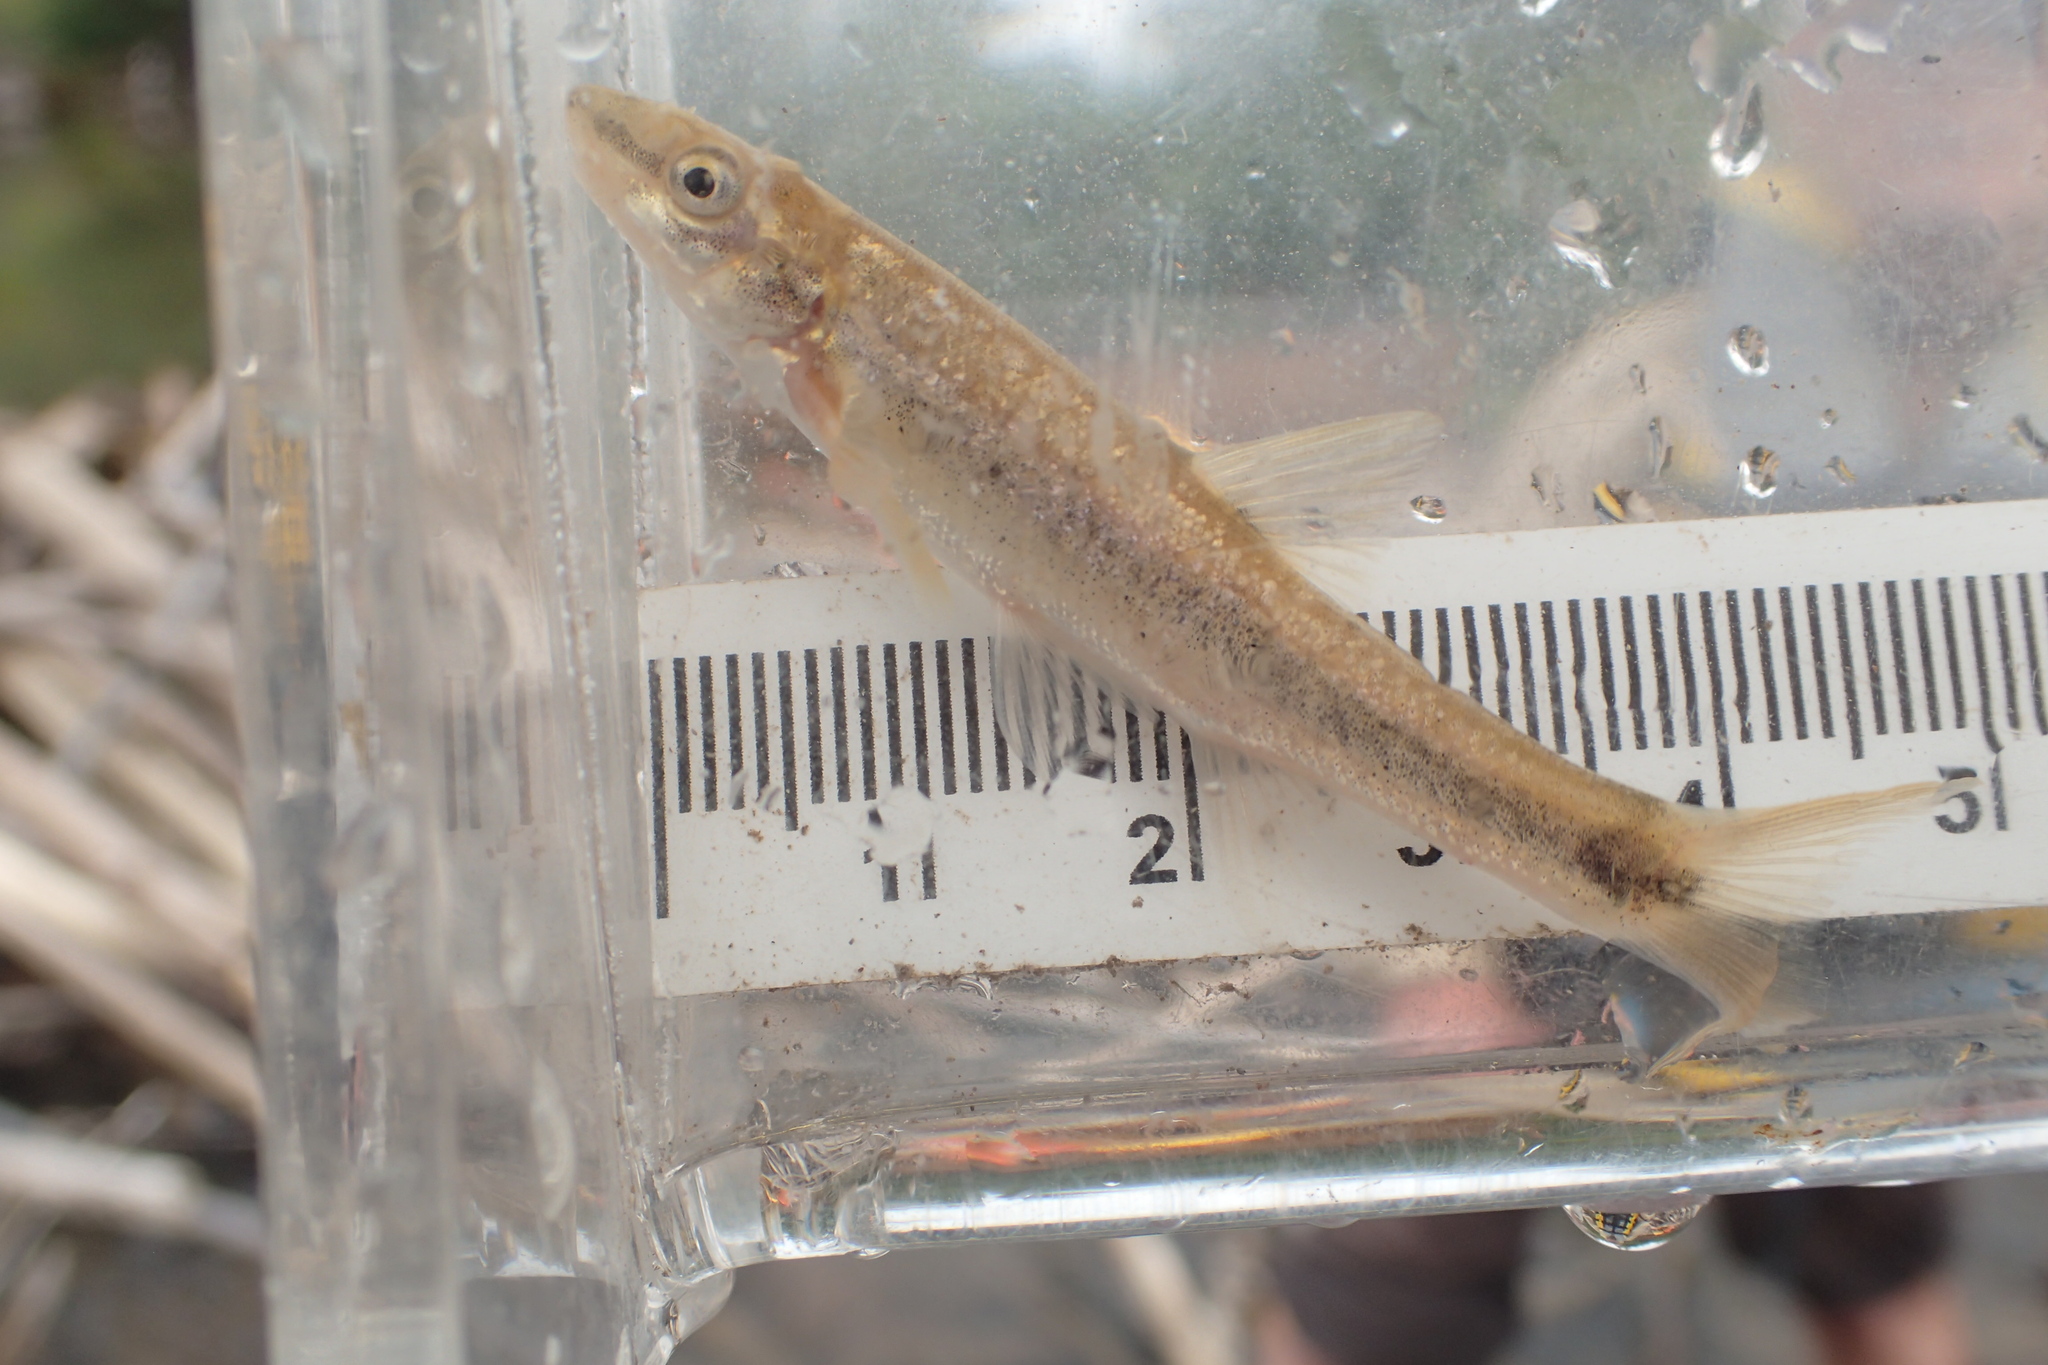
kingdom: Animalia
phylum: Chordata
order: Cypriniformes
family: Cyprinidae
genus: Rhinichthys
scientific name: Rhinichthys cataractae
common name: Longnose dace
